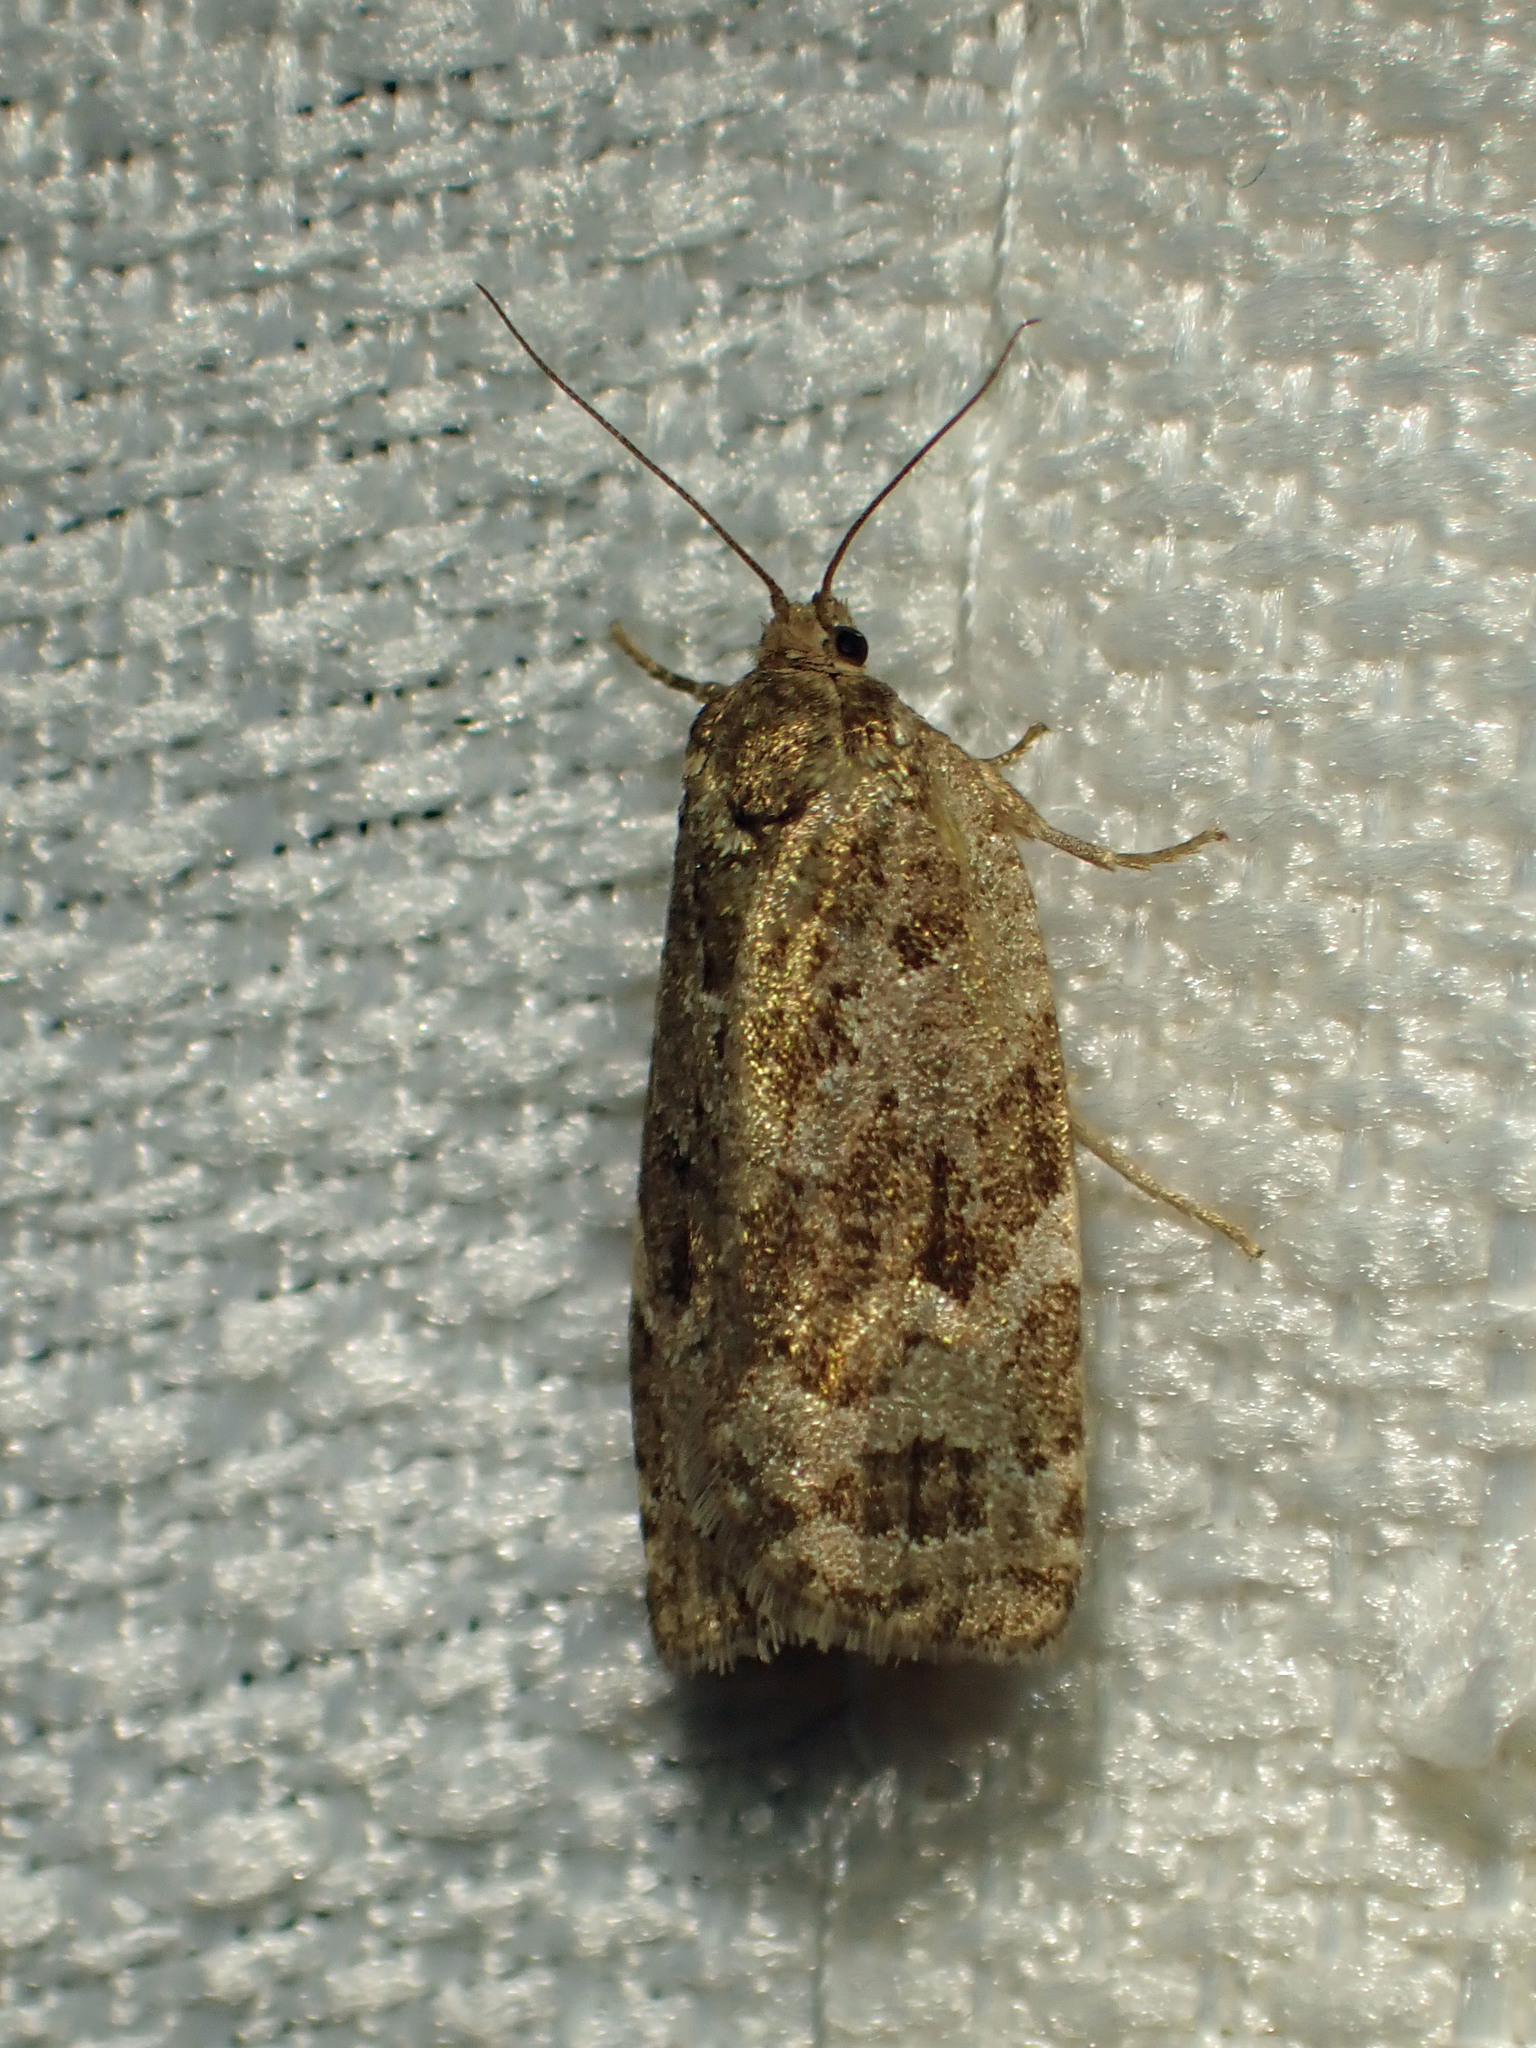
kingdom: Animalia
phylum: Arthropoda
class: Insecta
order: Lepidoptera
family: Tortricidae
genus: Choristoneura
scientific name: Choristoneura fumiferana
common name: Spruce budworm
